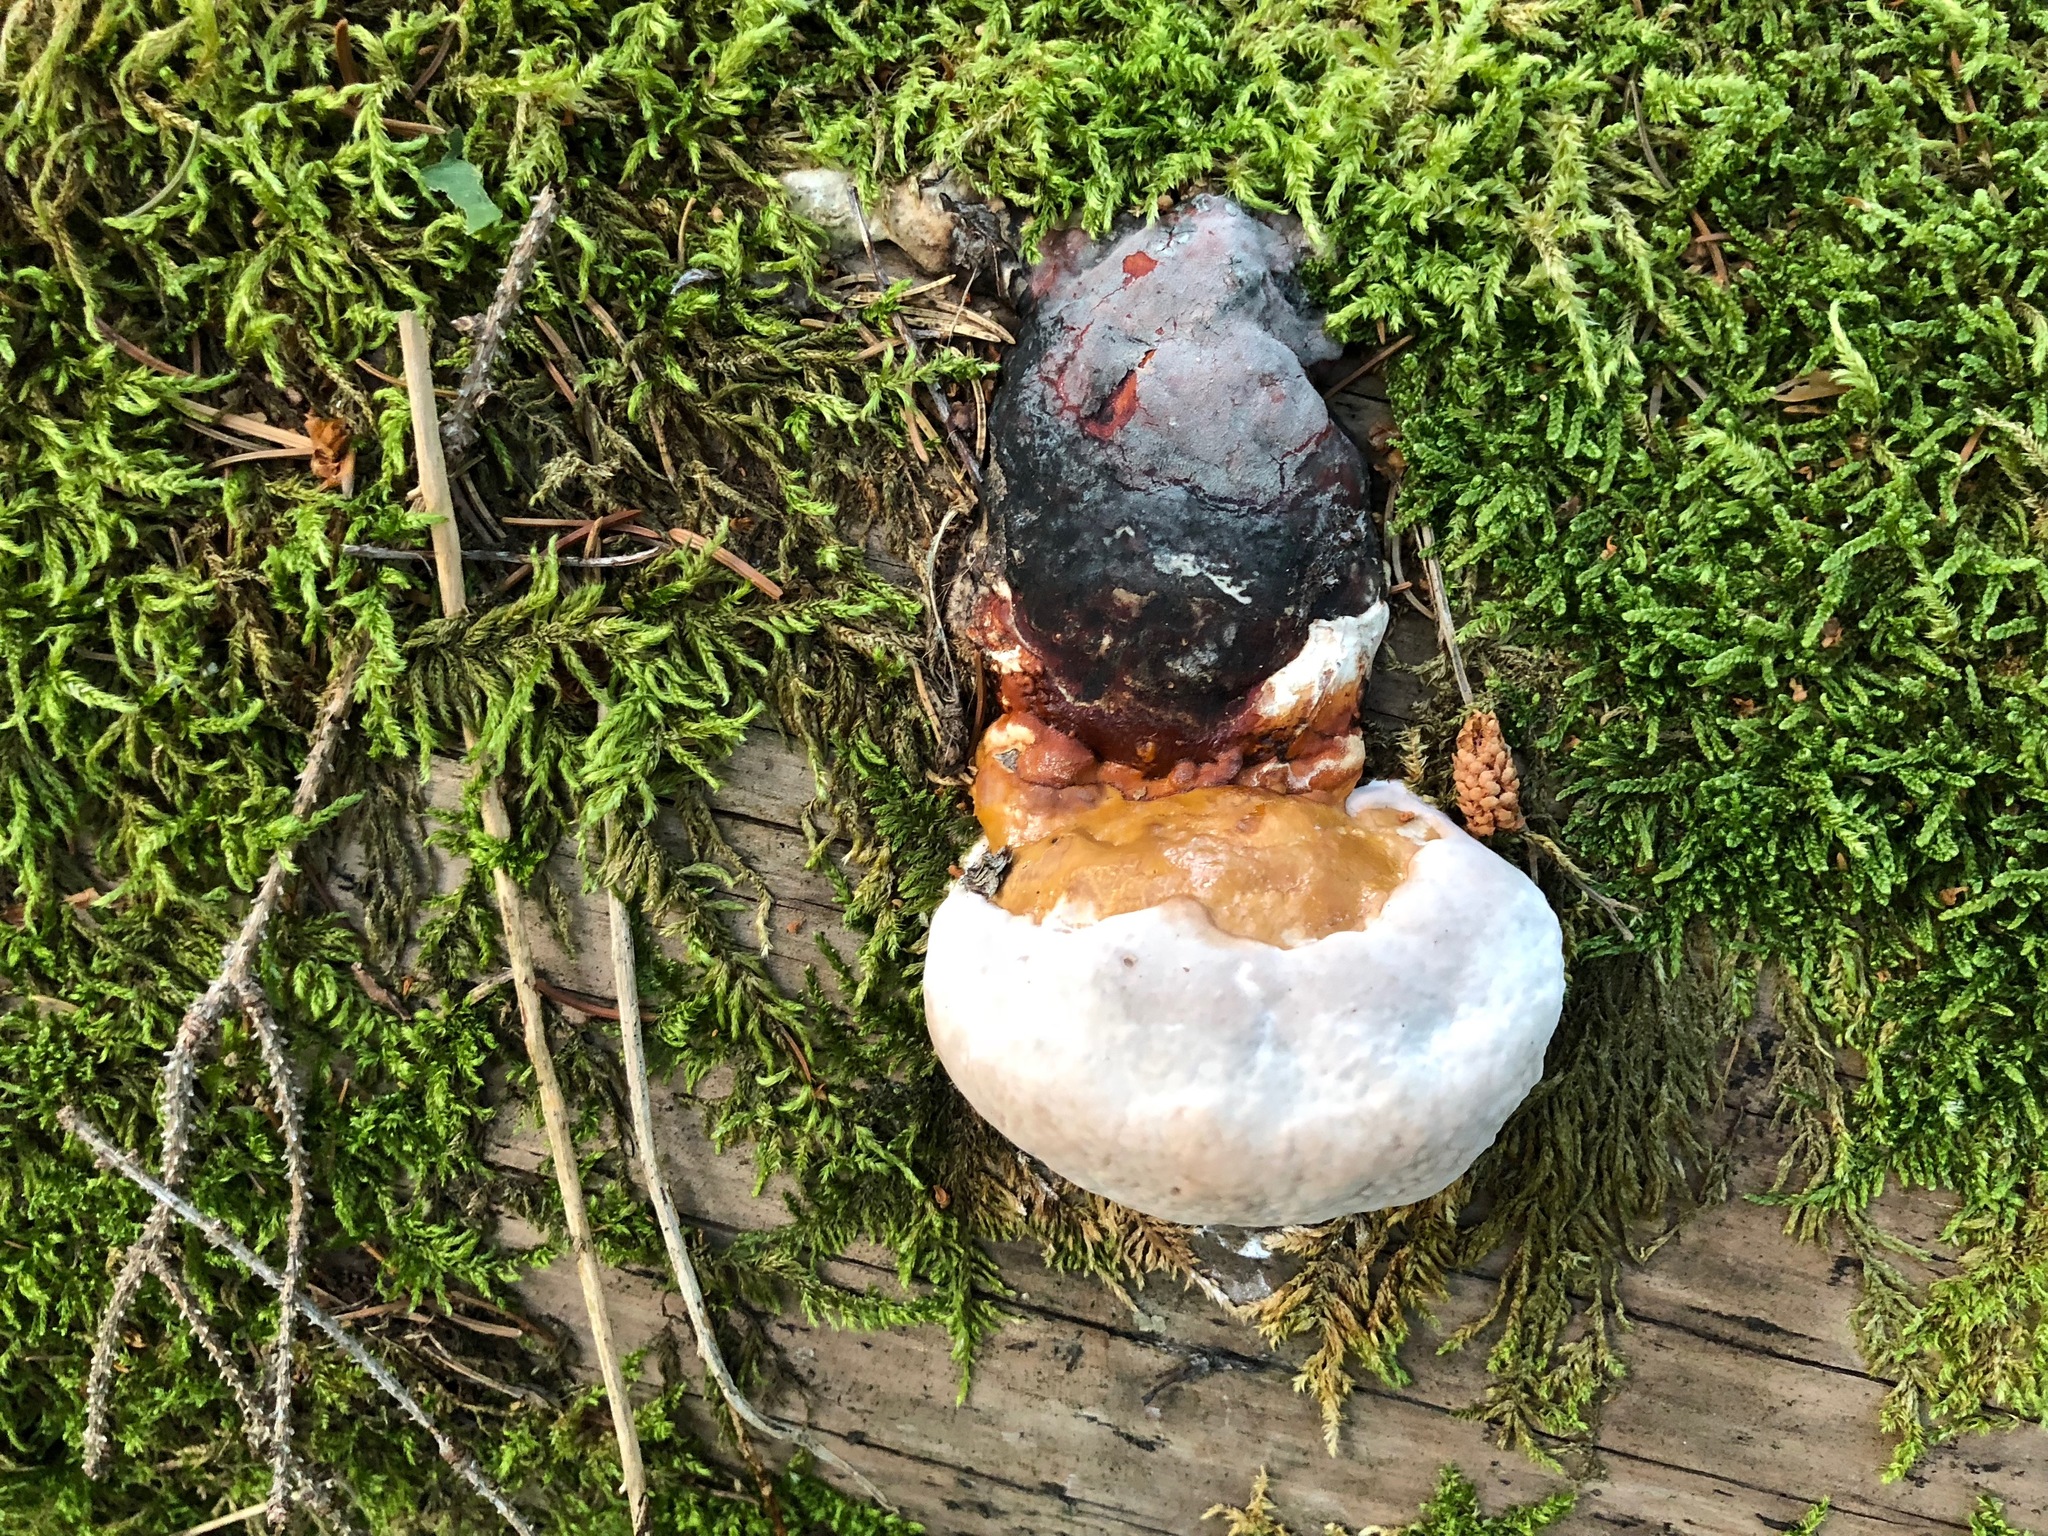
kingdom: Fungi
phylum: Basidiomycota
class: Agaricomycetes
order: Polyporales
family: Fomitopsidaceae
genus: Fomitopsis
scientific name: Fomitopsis pinicola
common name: Red-belted bracket
